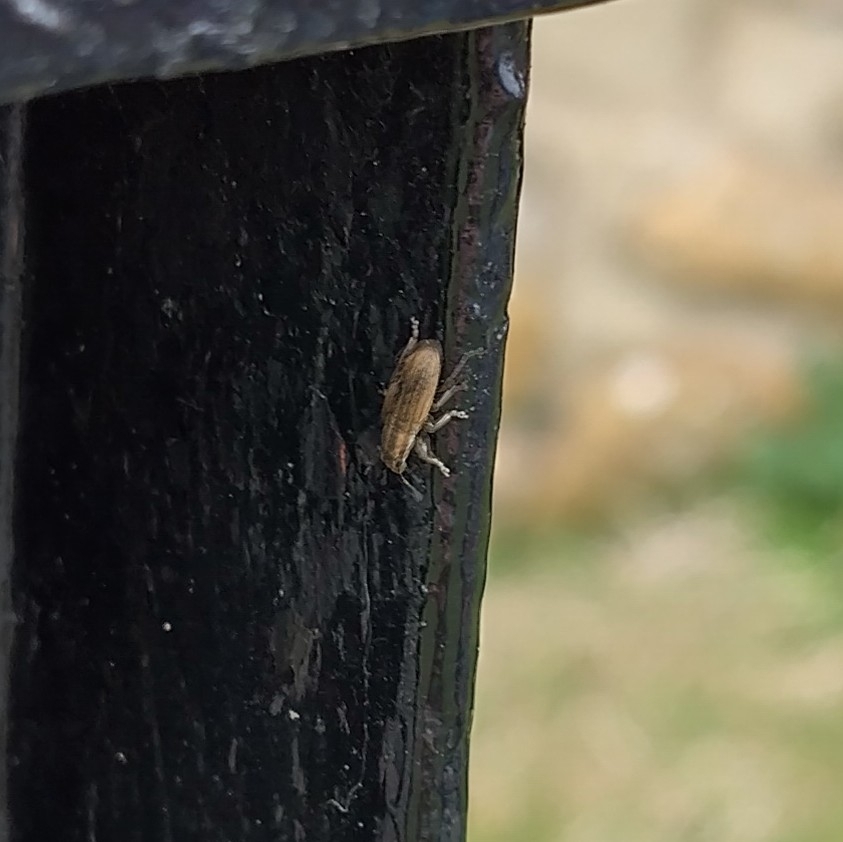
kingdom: Animalia
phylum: Arthropoda
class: Insecta
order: Coleoptera
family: Curculionidae
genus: Sitona
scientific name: Sitona lineatus
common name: Weevil
